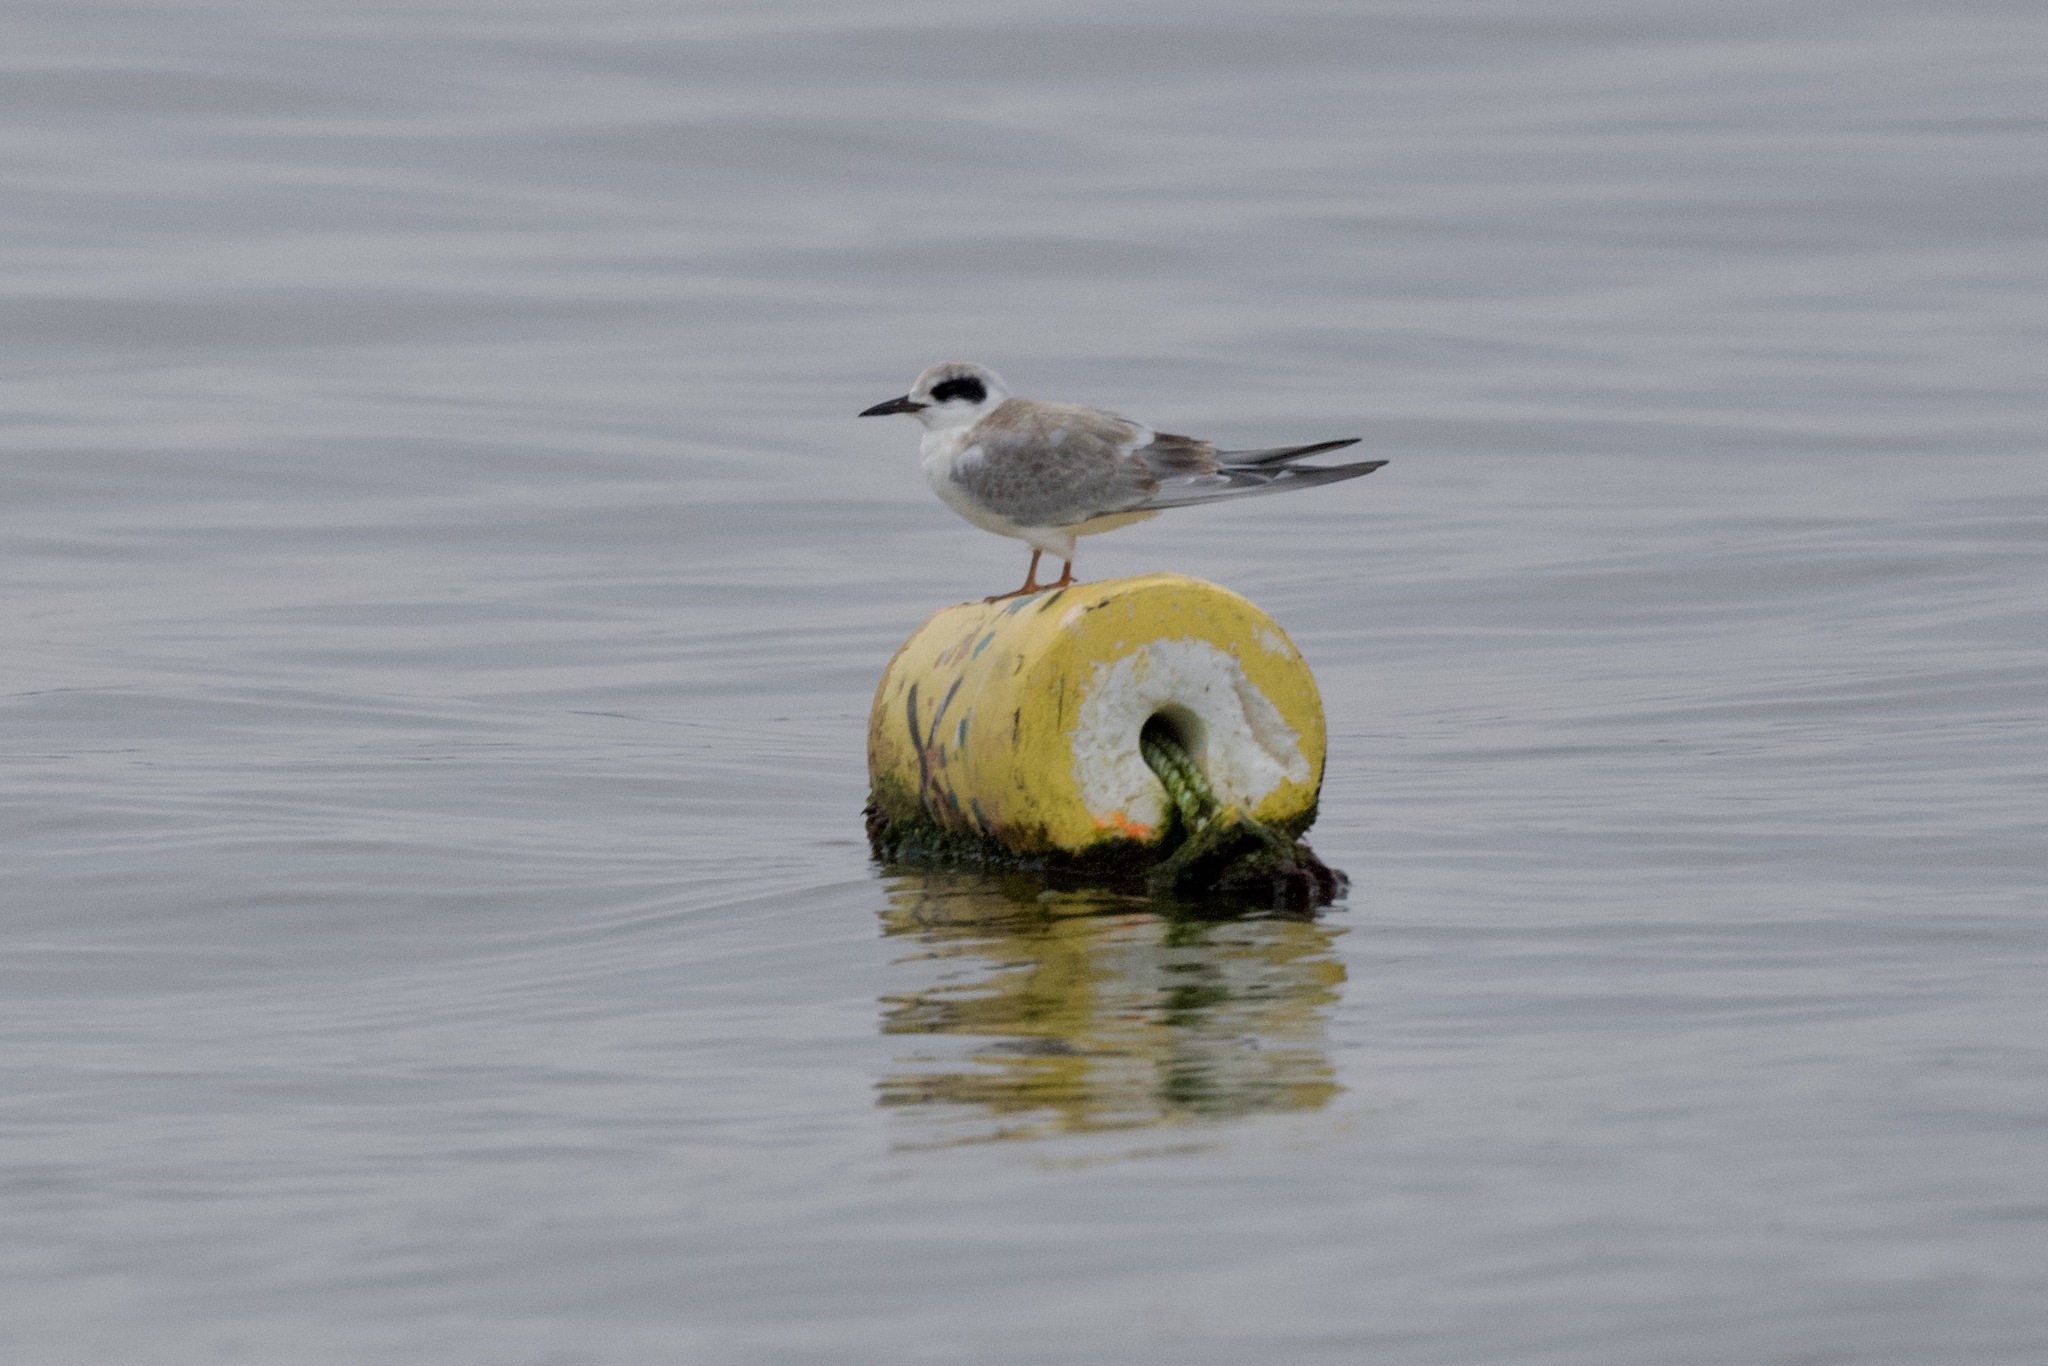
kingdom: Animalia
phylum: Chordata
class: Aves
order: Charadriiformes
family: Laridae
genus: Sterna
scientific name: Sterna forsteri
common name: Forster's tern
